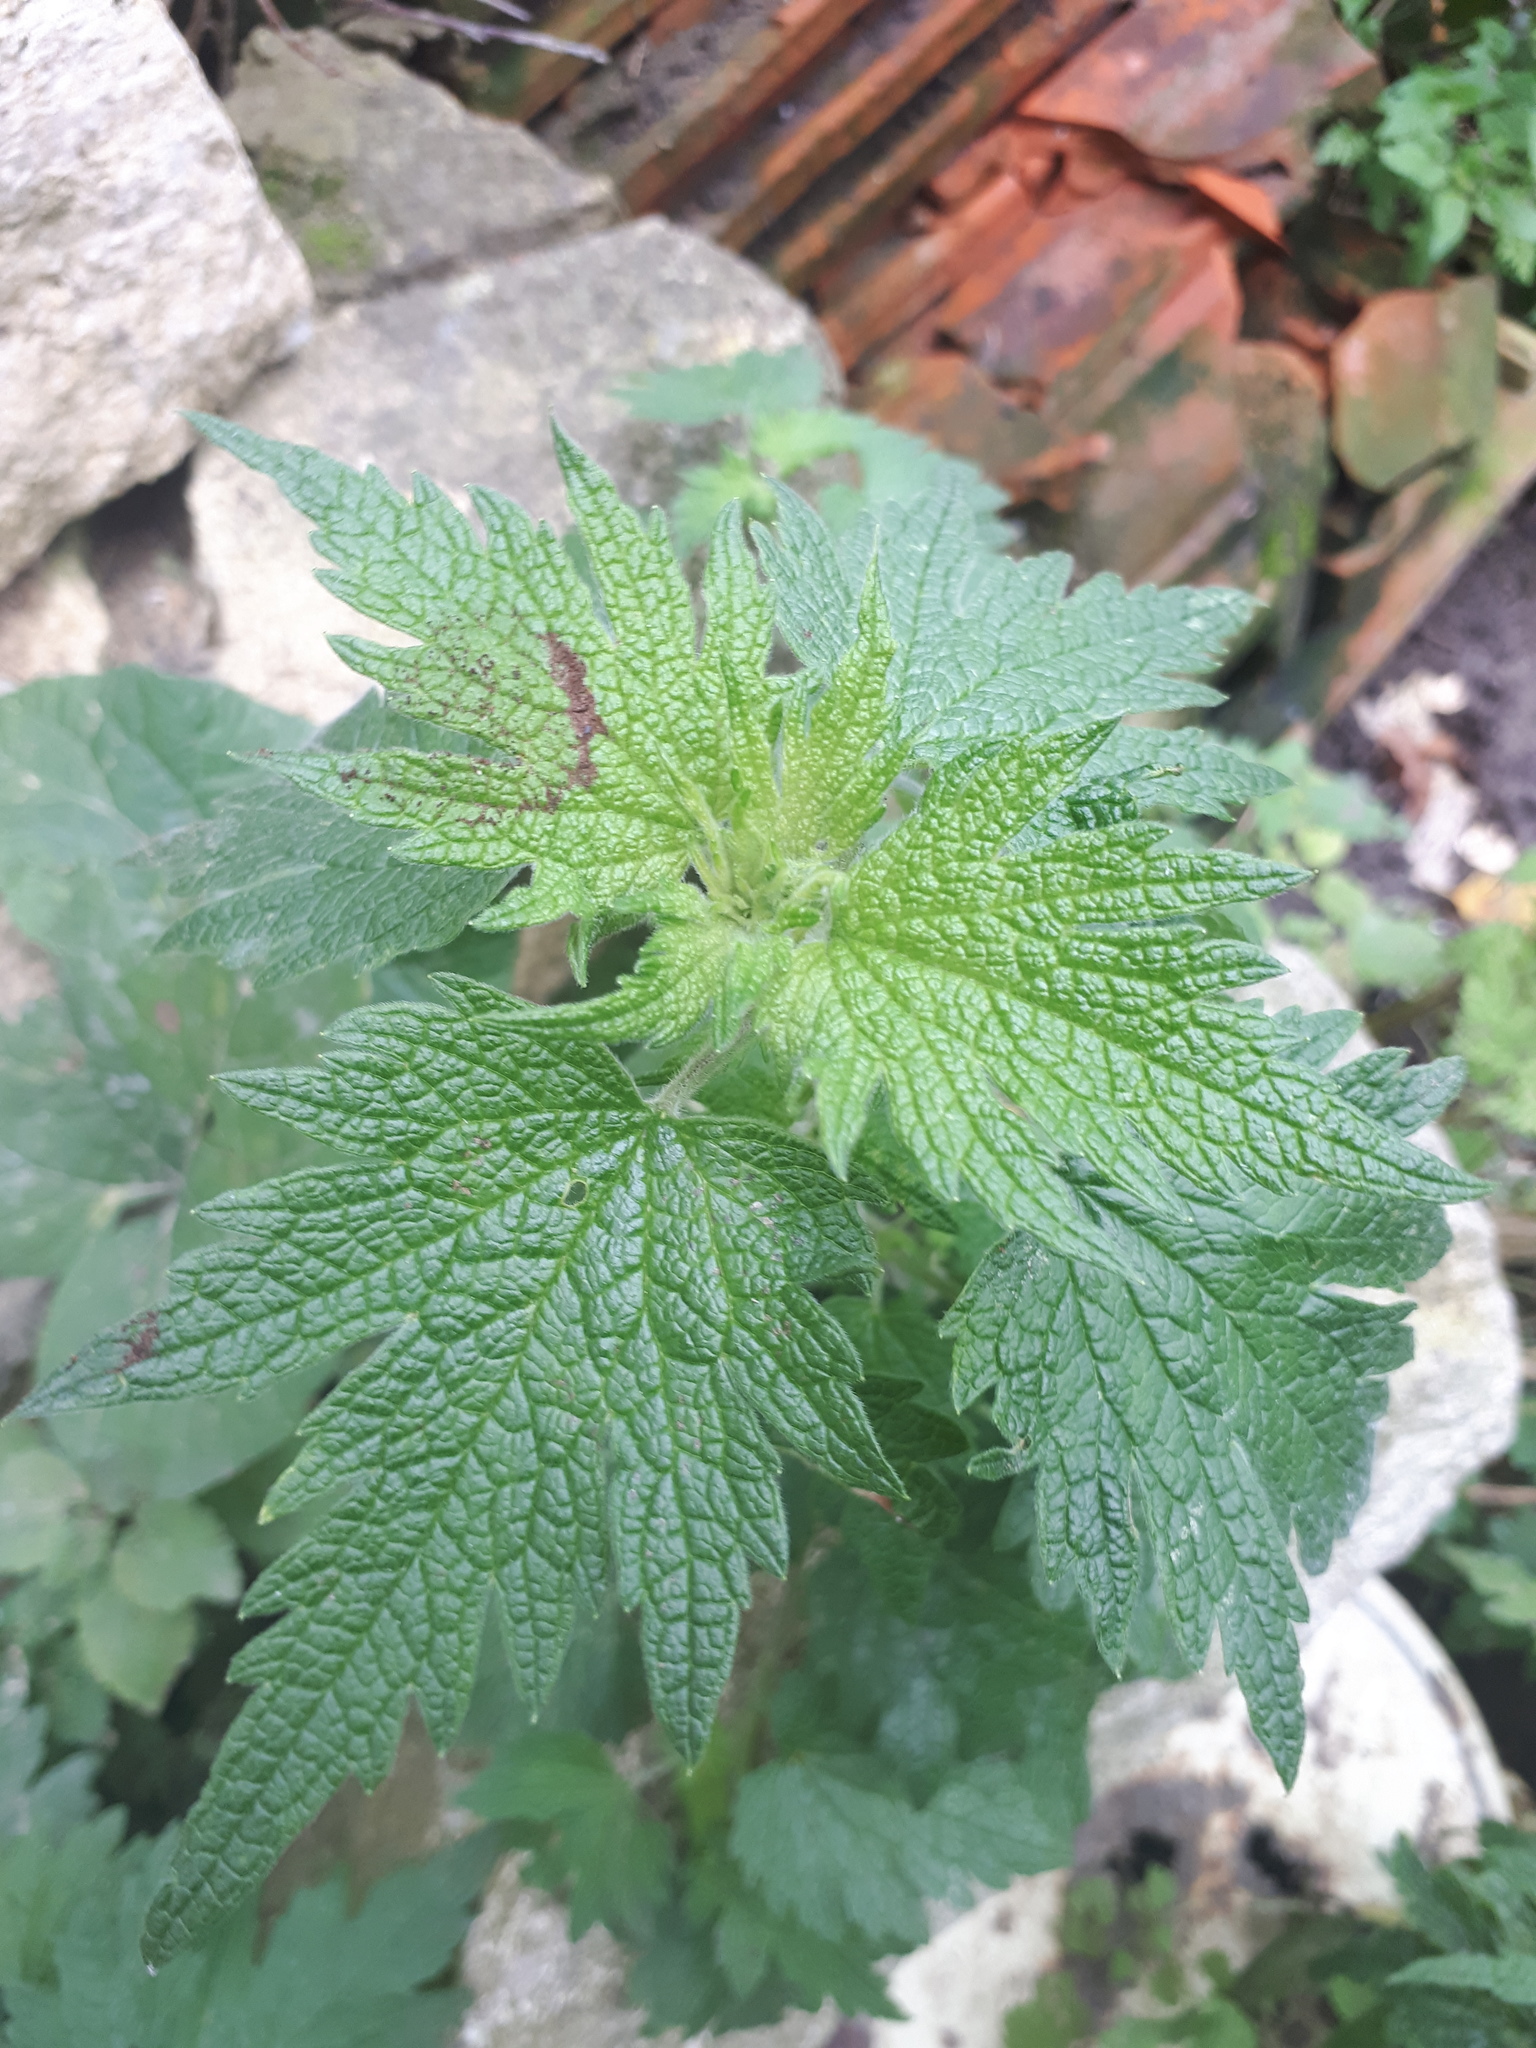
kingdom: Plantae
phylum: Tracheophyta
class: Magnoliopsida
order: Lamiales
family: Lamiaceae
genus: Leonurus
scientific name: Leonurus quinquelobatus
